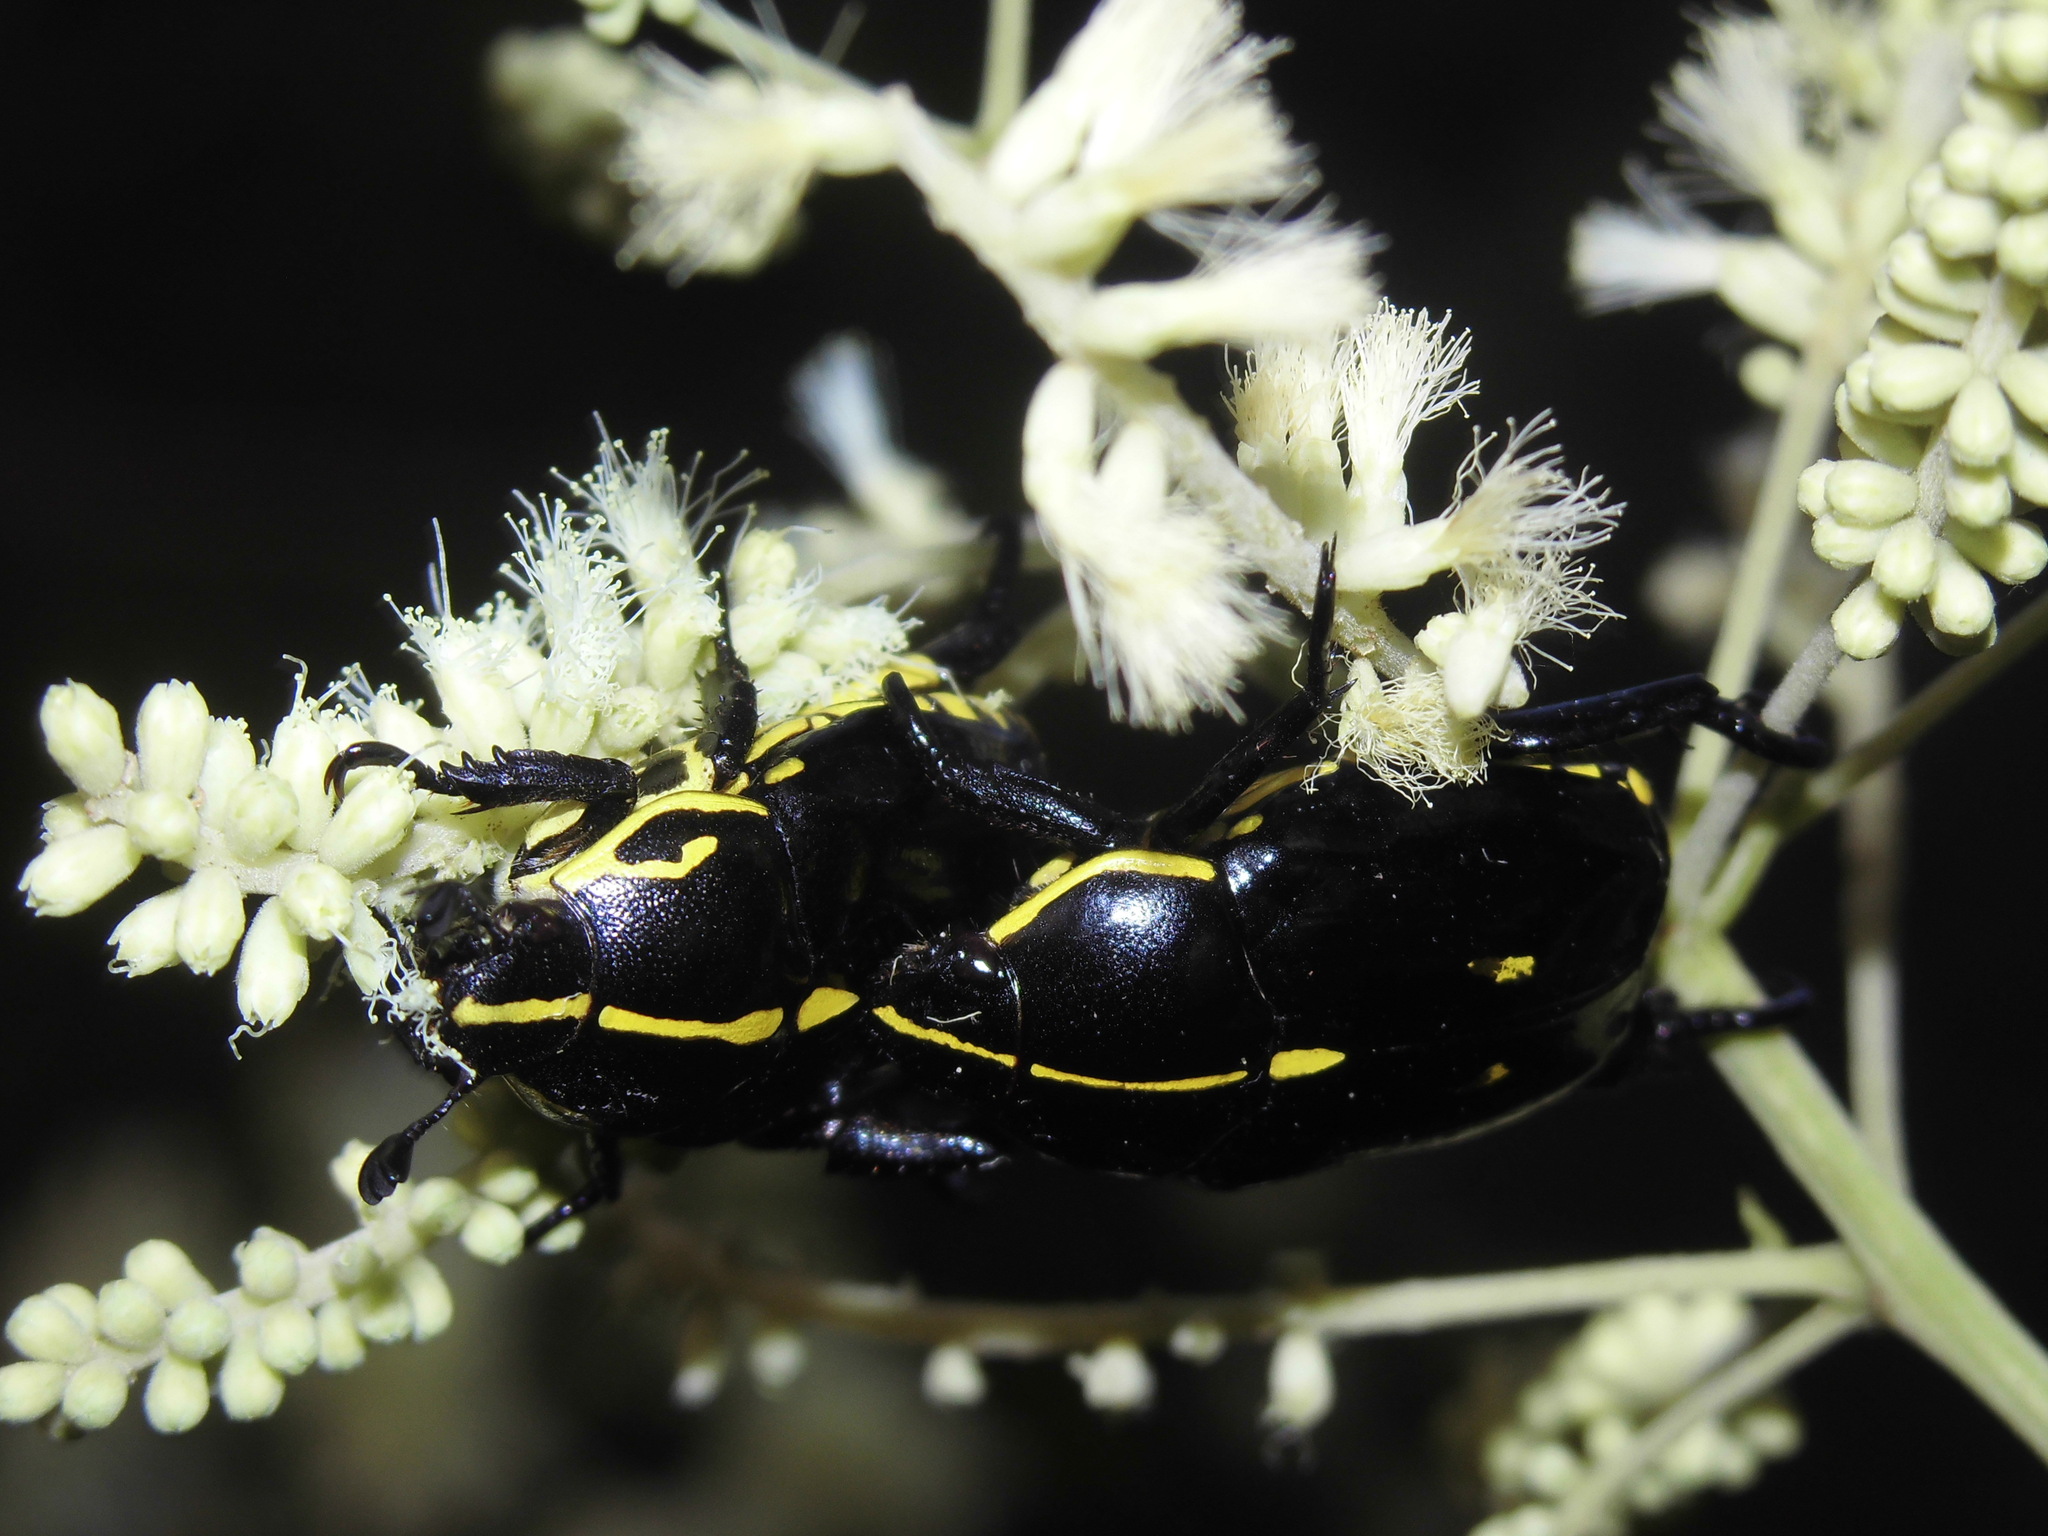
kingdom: Animalia
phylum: Arthropoda
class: Insecta
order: Coleoptera
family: Scarabaeidae
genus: Rutela
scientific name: Rutela lineola
